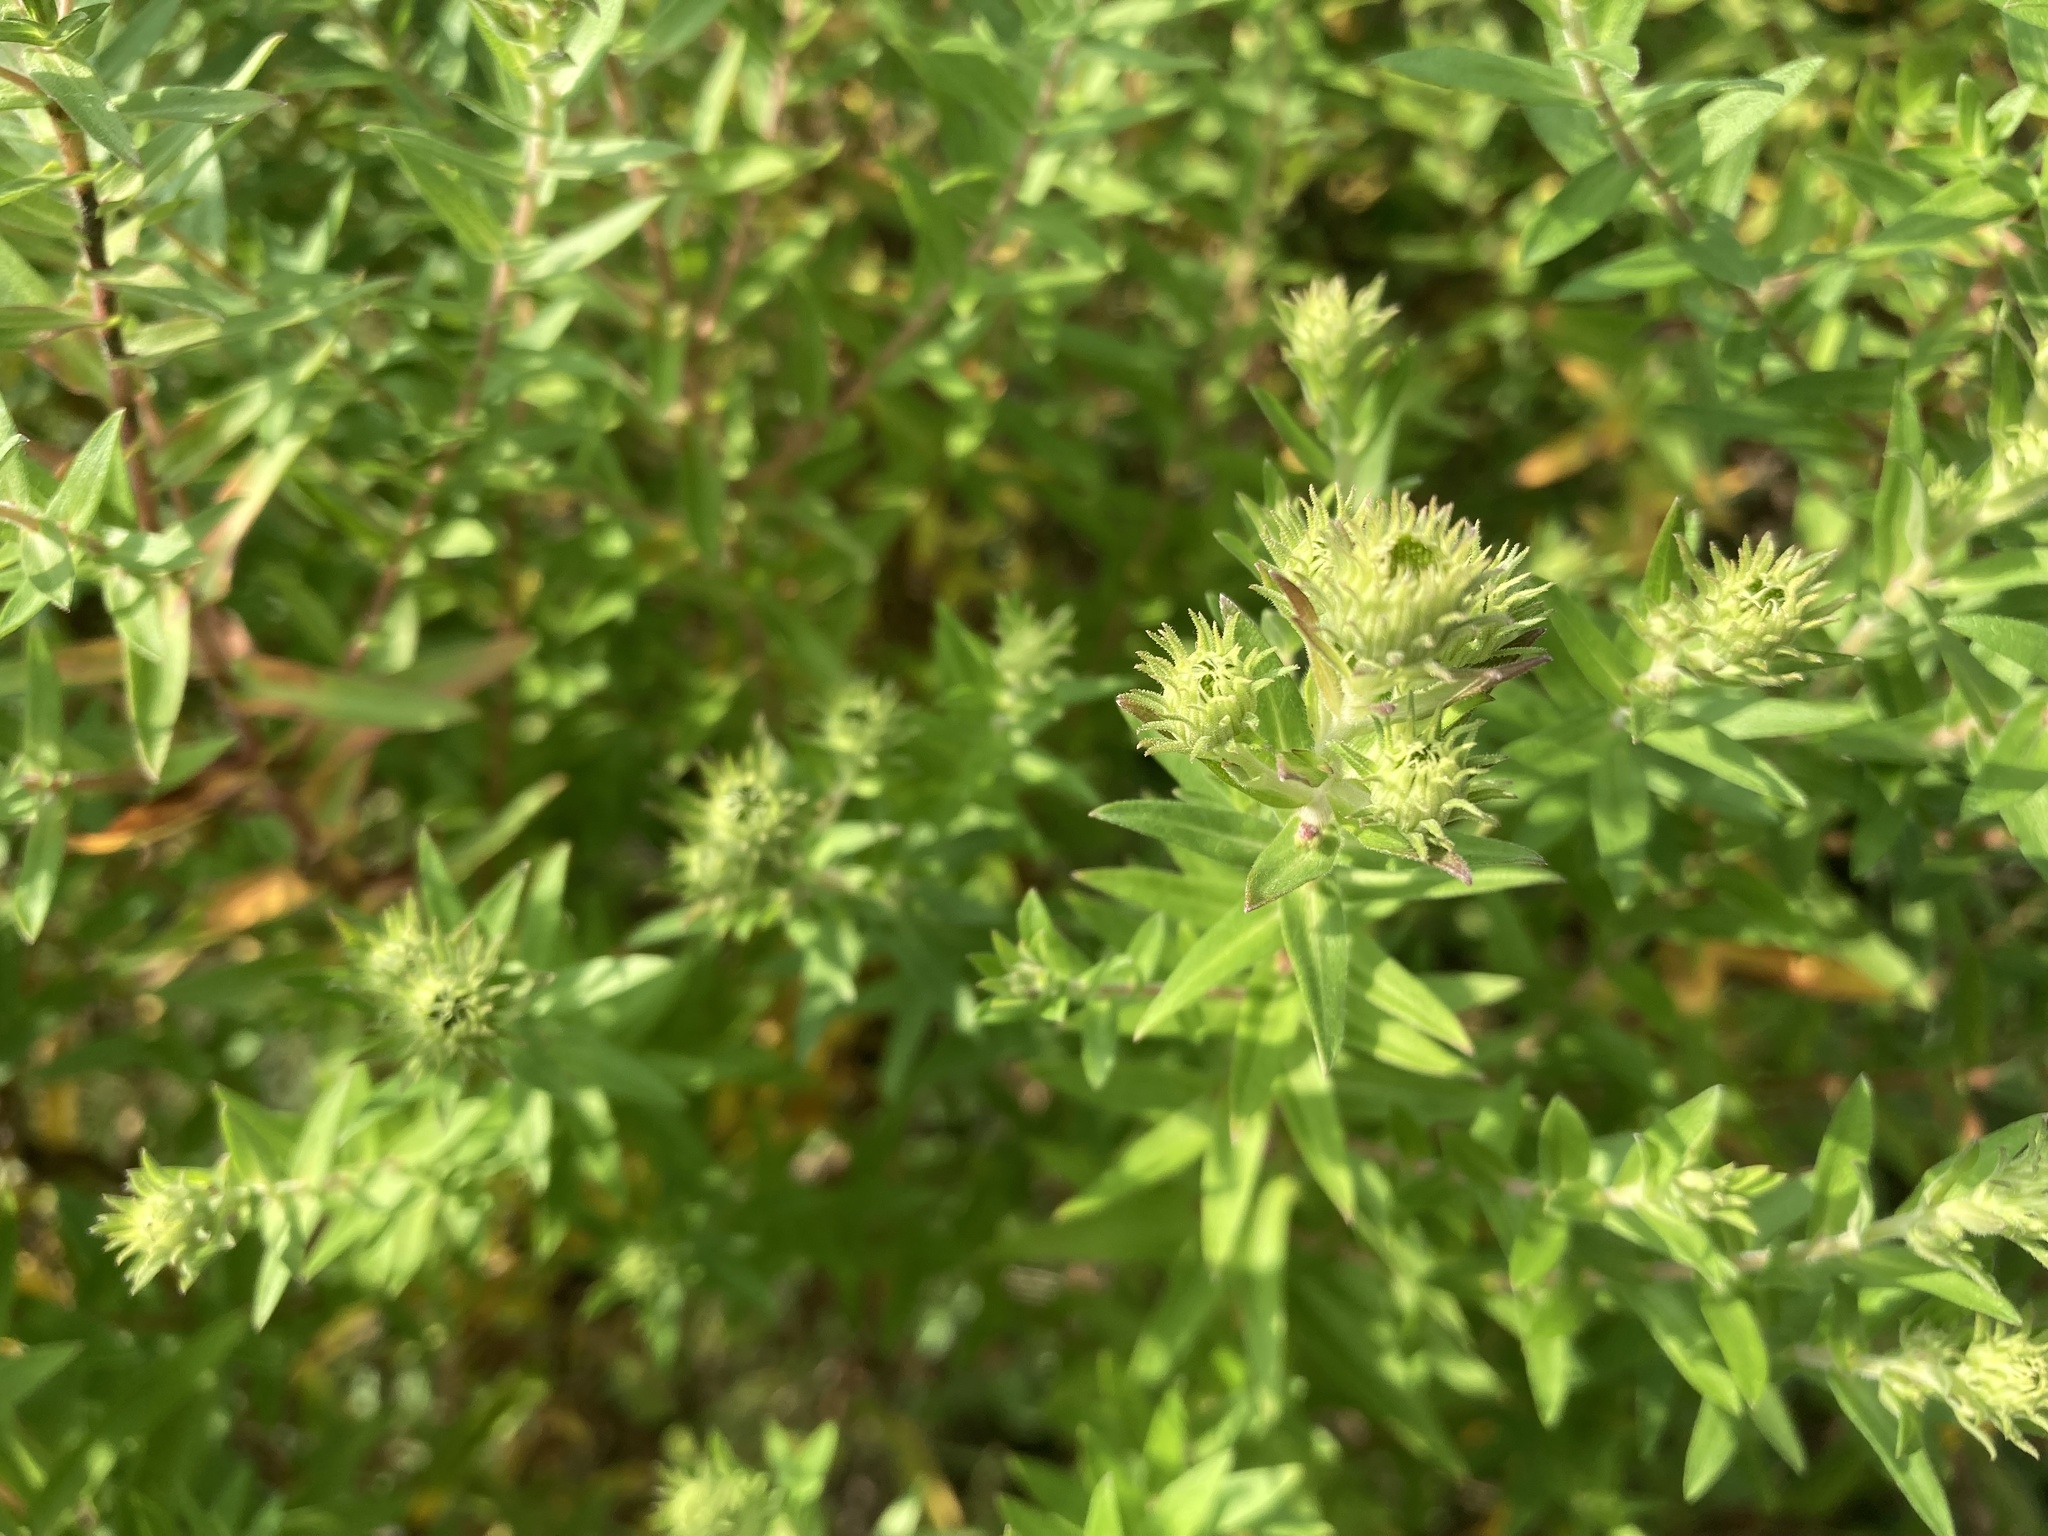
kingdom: Plantae
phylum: Tracheophyta
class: Magnoliopsida
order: Asterales
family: Asteraceae
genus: Symphyotrichum
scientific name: Symphyotrichum novae-angliae
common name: Michaelmas daisy
